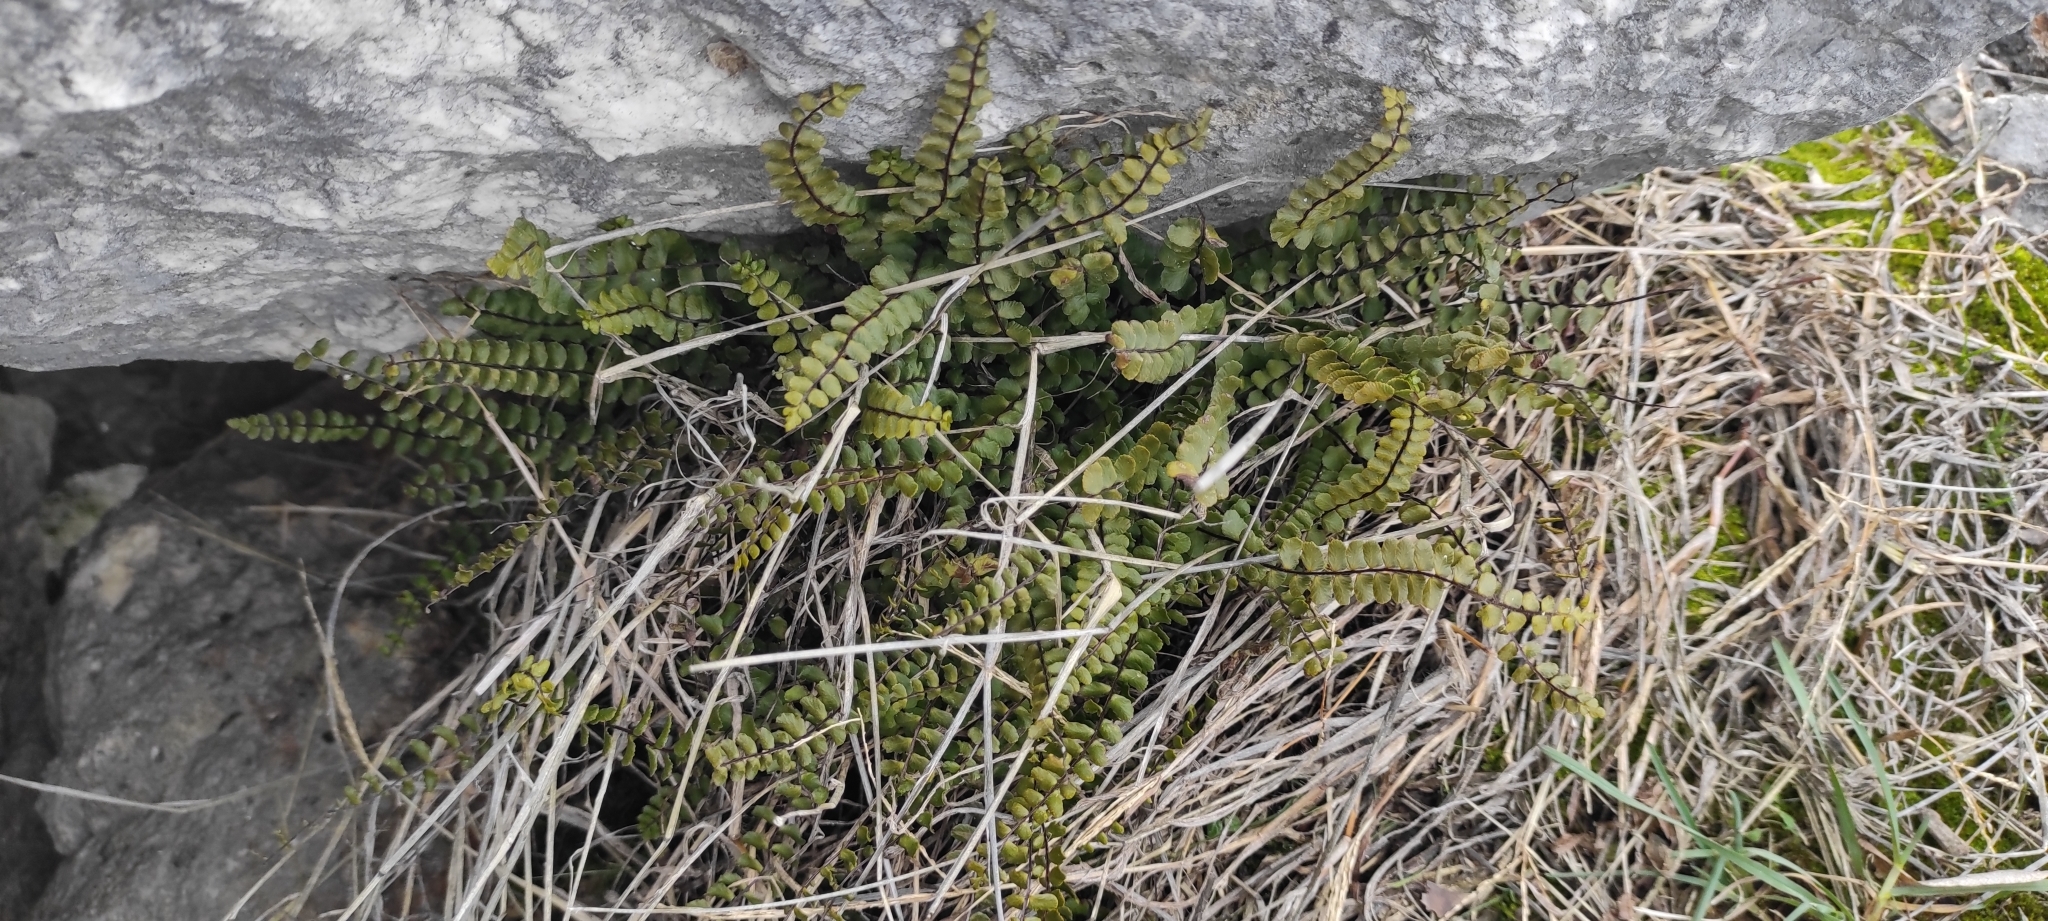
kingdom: Plantae
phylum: Tracheophyta
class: Polypodiopsida
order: Polypodiales
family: Aspleniaceae
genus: Asplenium
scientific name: Asplenium trichomanes
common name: Maidenhair spleenwort
